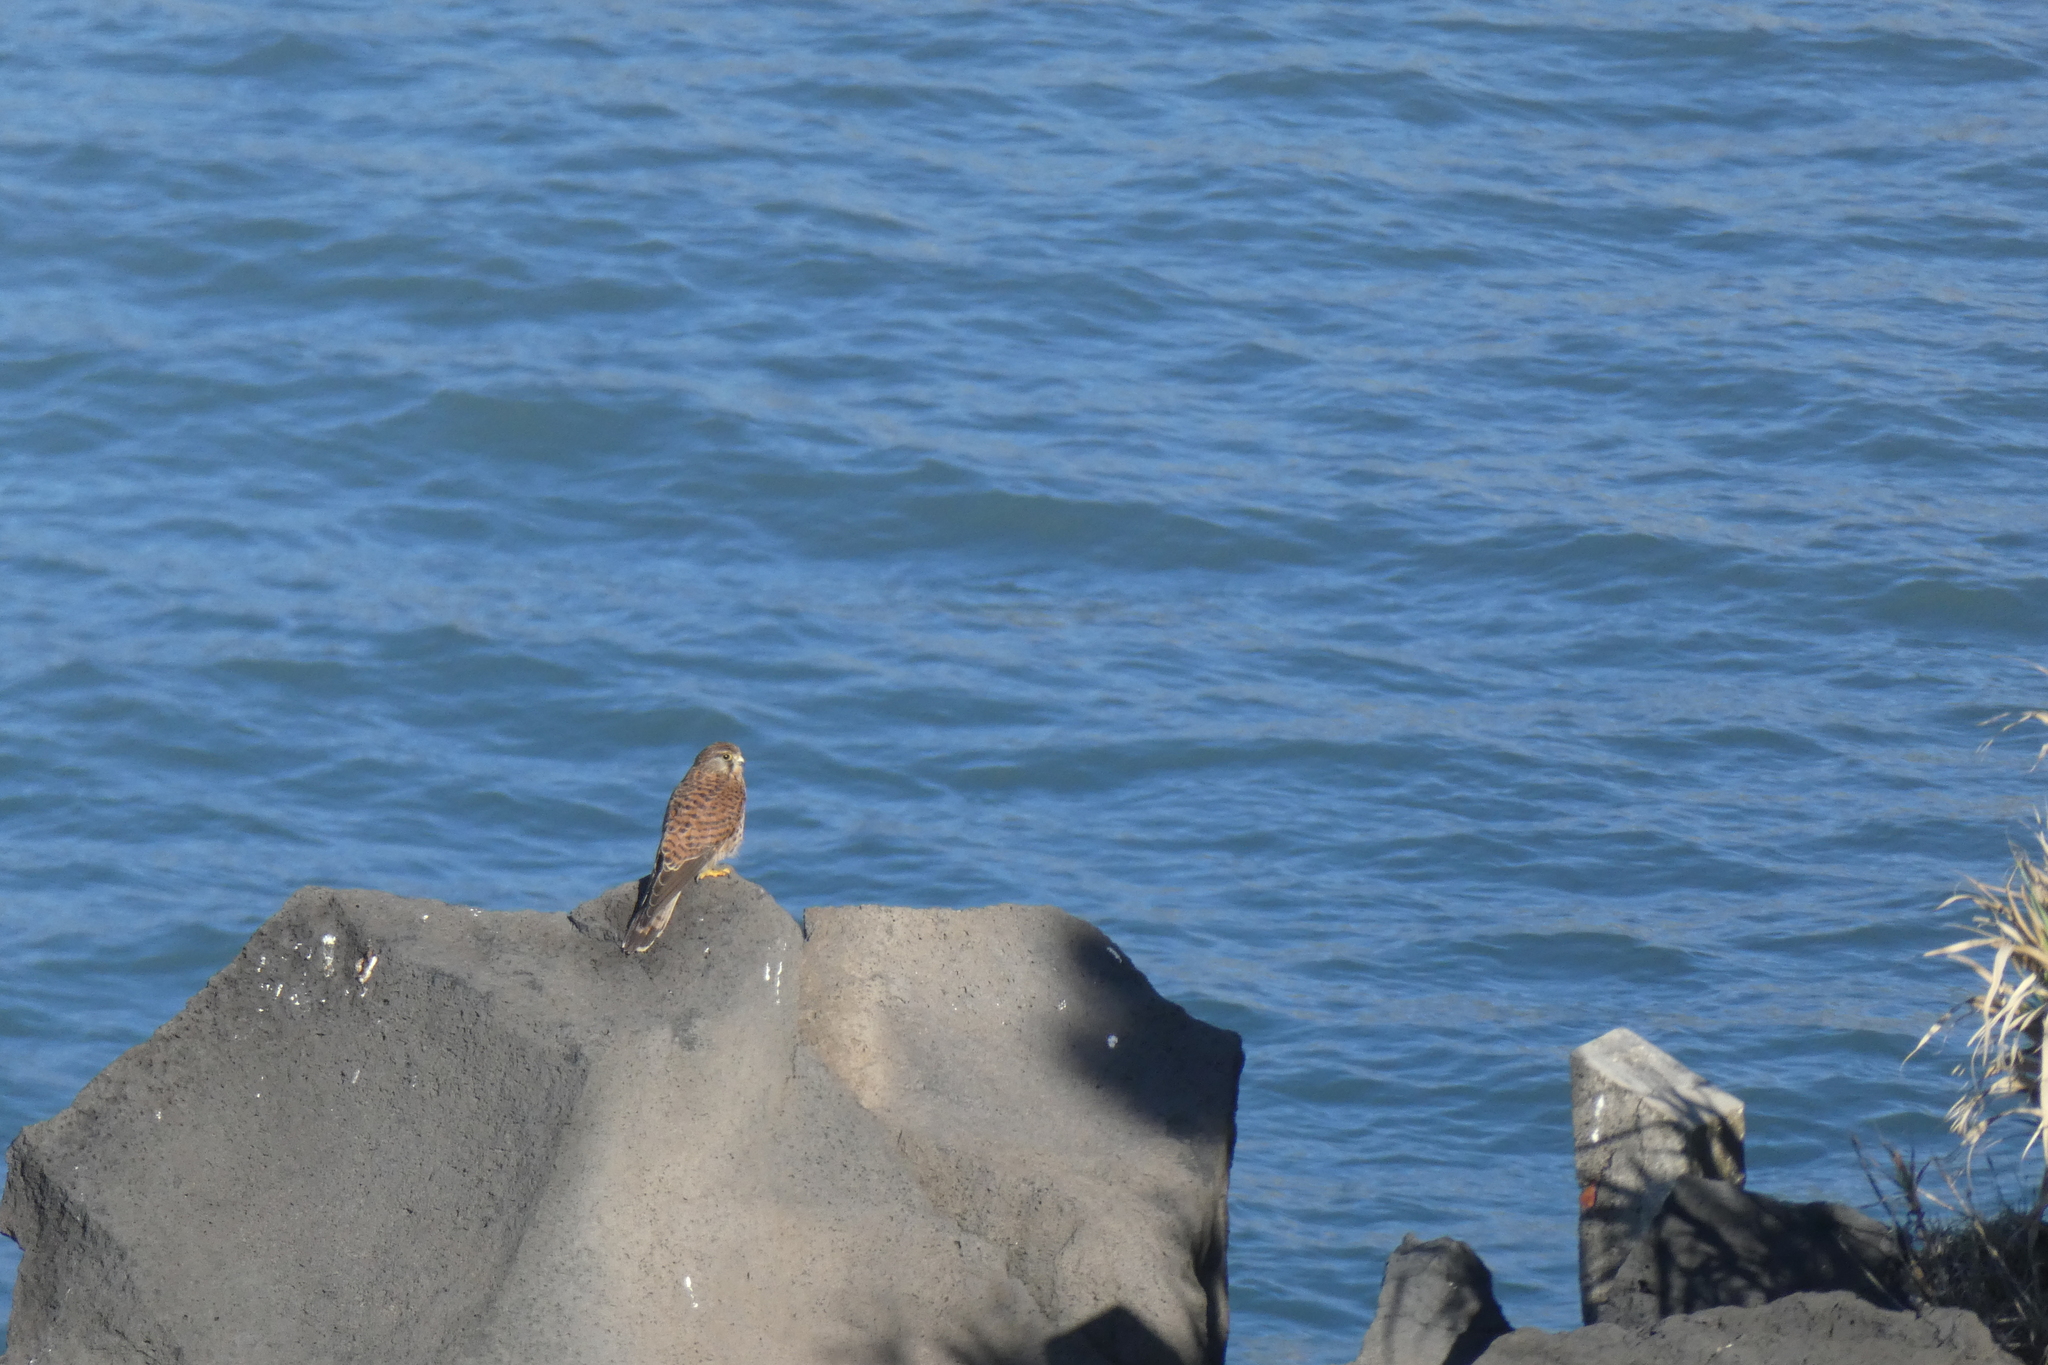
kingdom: Animalia
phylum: Chordata
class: Aves
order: Falconiformes
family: Falconidae
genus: Falco
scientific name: Falco tinnunculus
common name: Common kestrel
